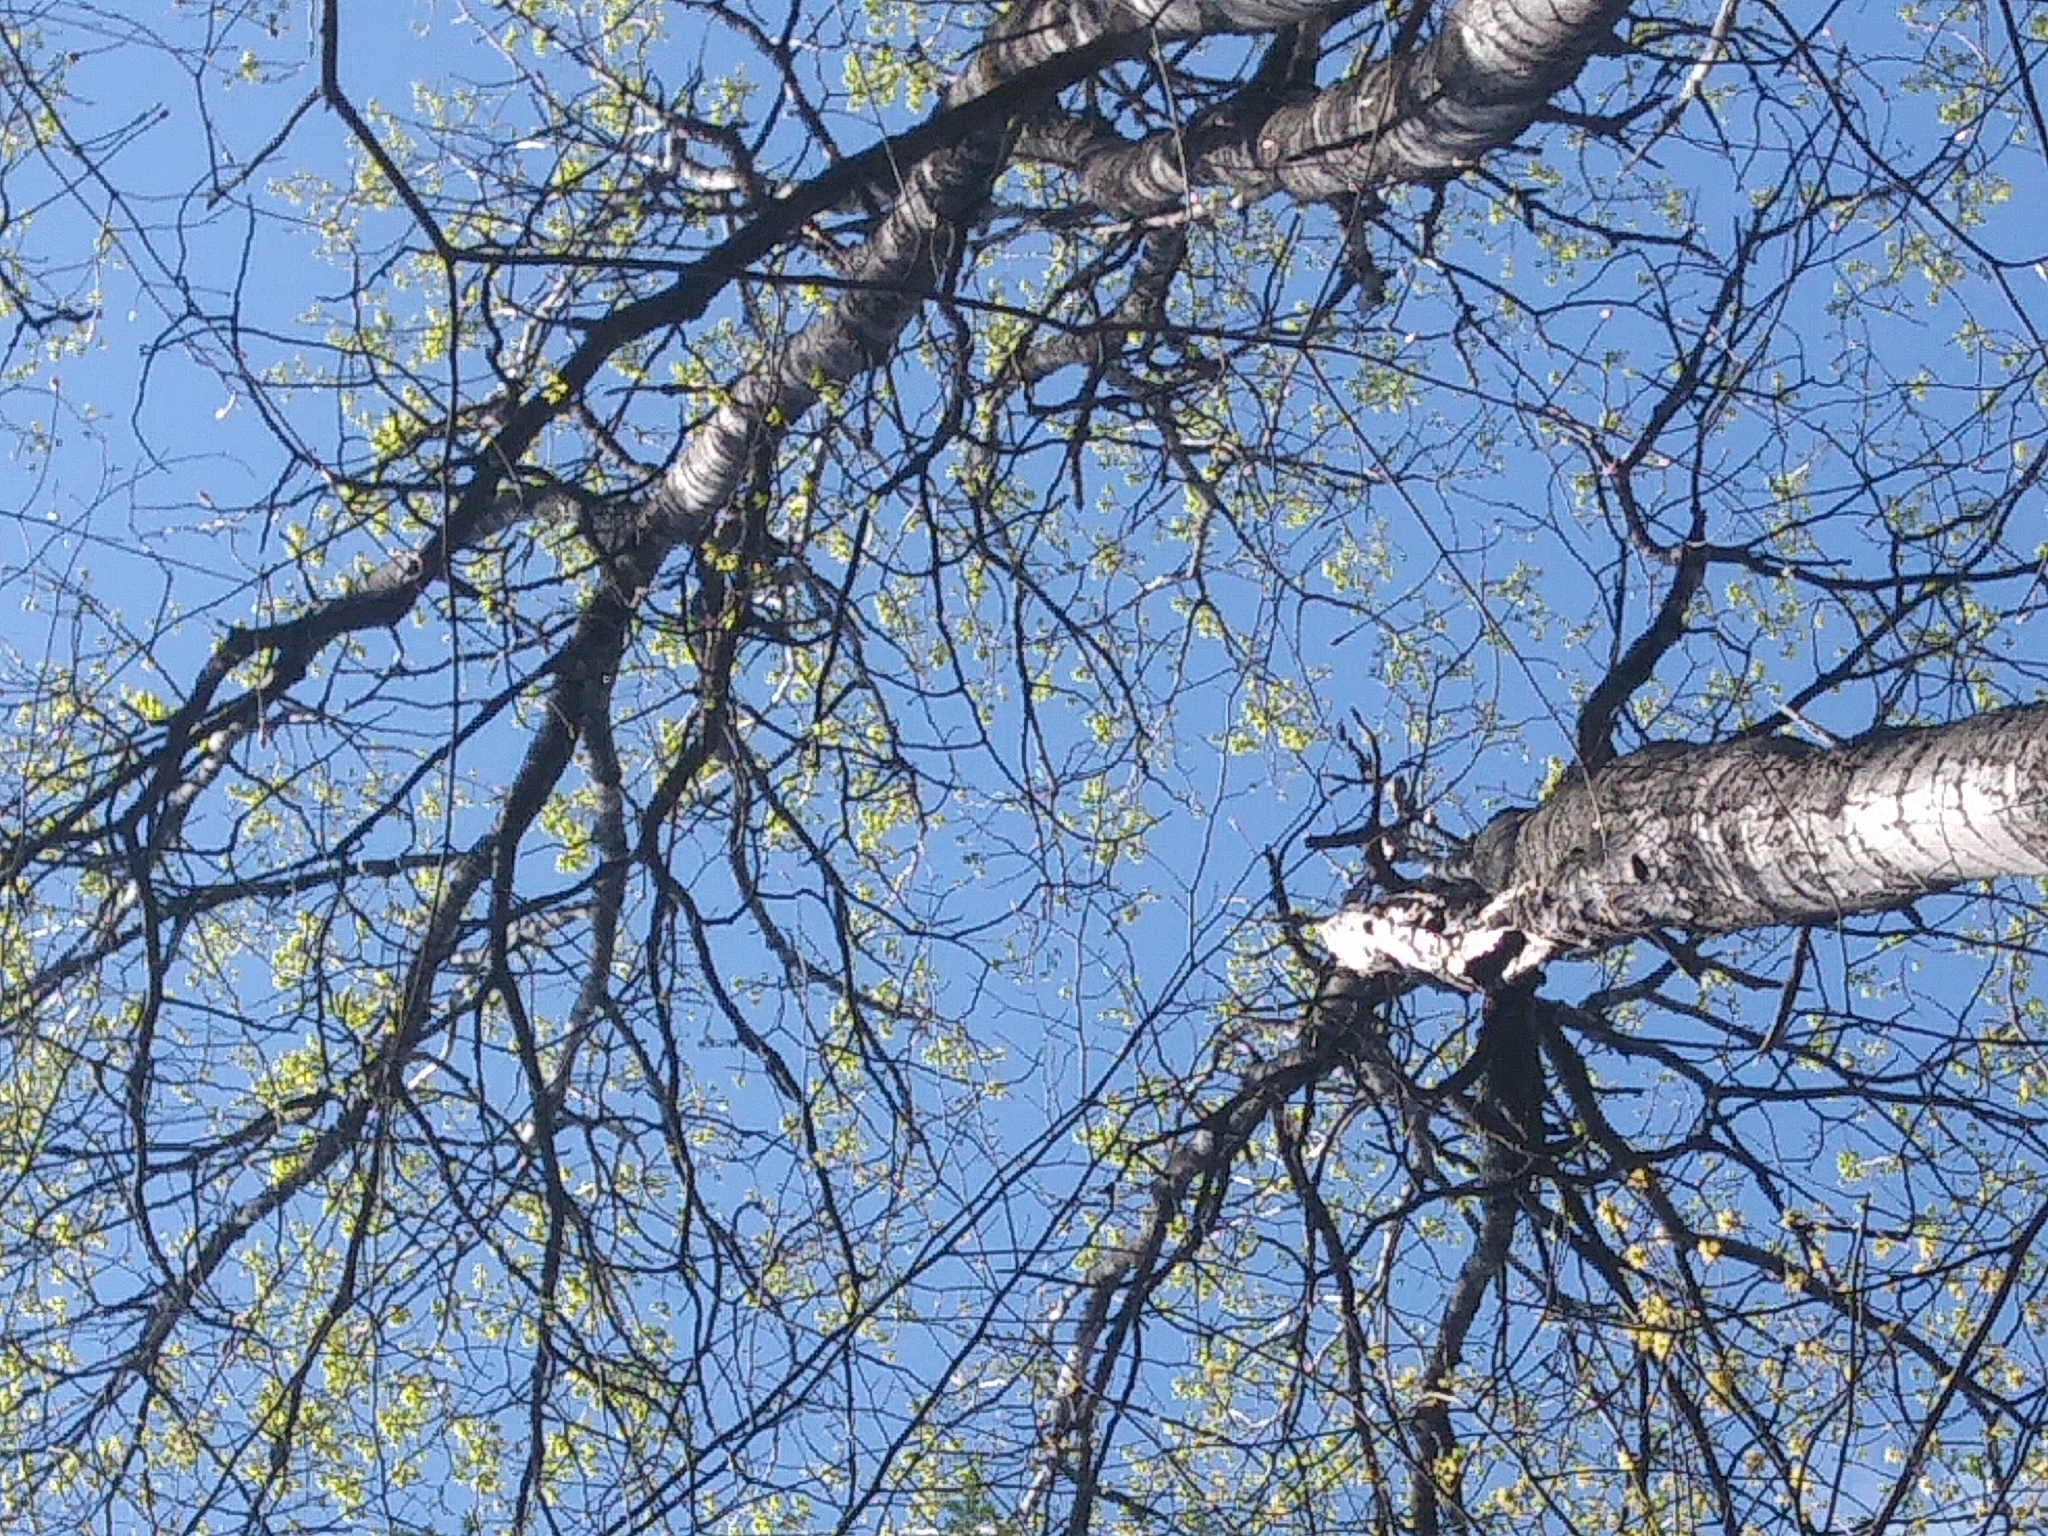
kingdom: Plantae
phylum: Tracheophyta
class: Magnoliopsida
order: Malpighiales
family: Salicaceae
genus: Populus
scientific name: Populus grandidentata
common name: Bigtooth aspen
